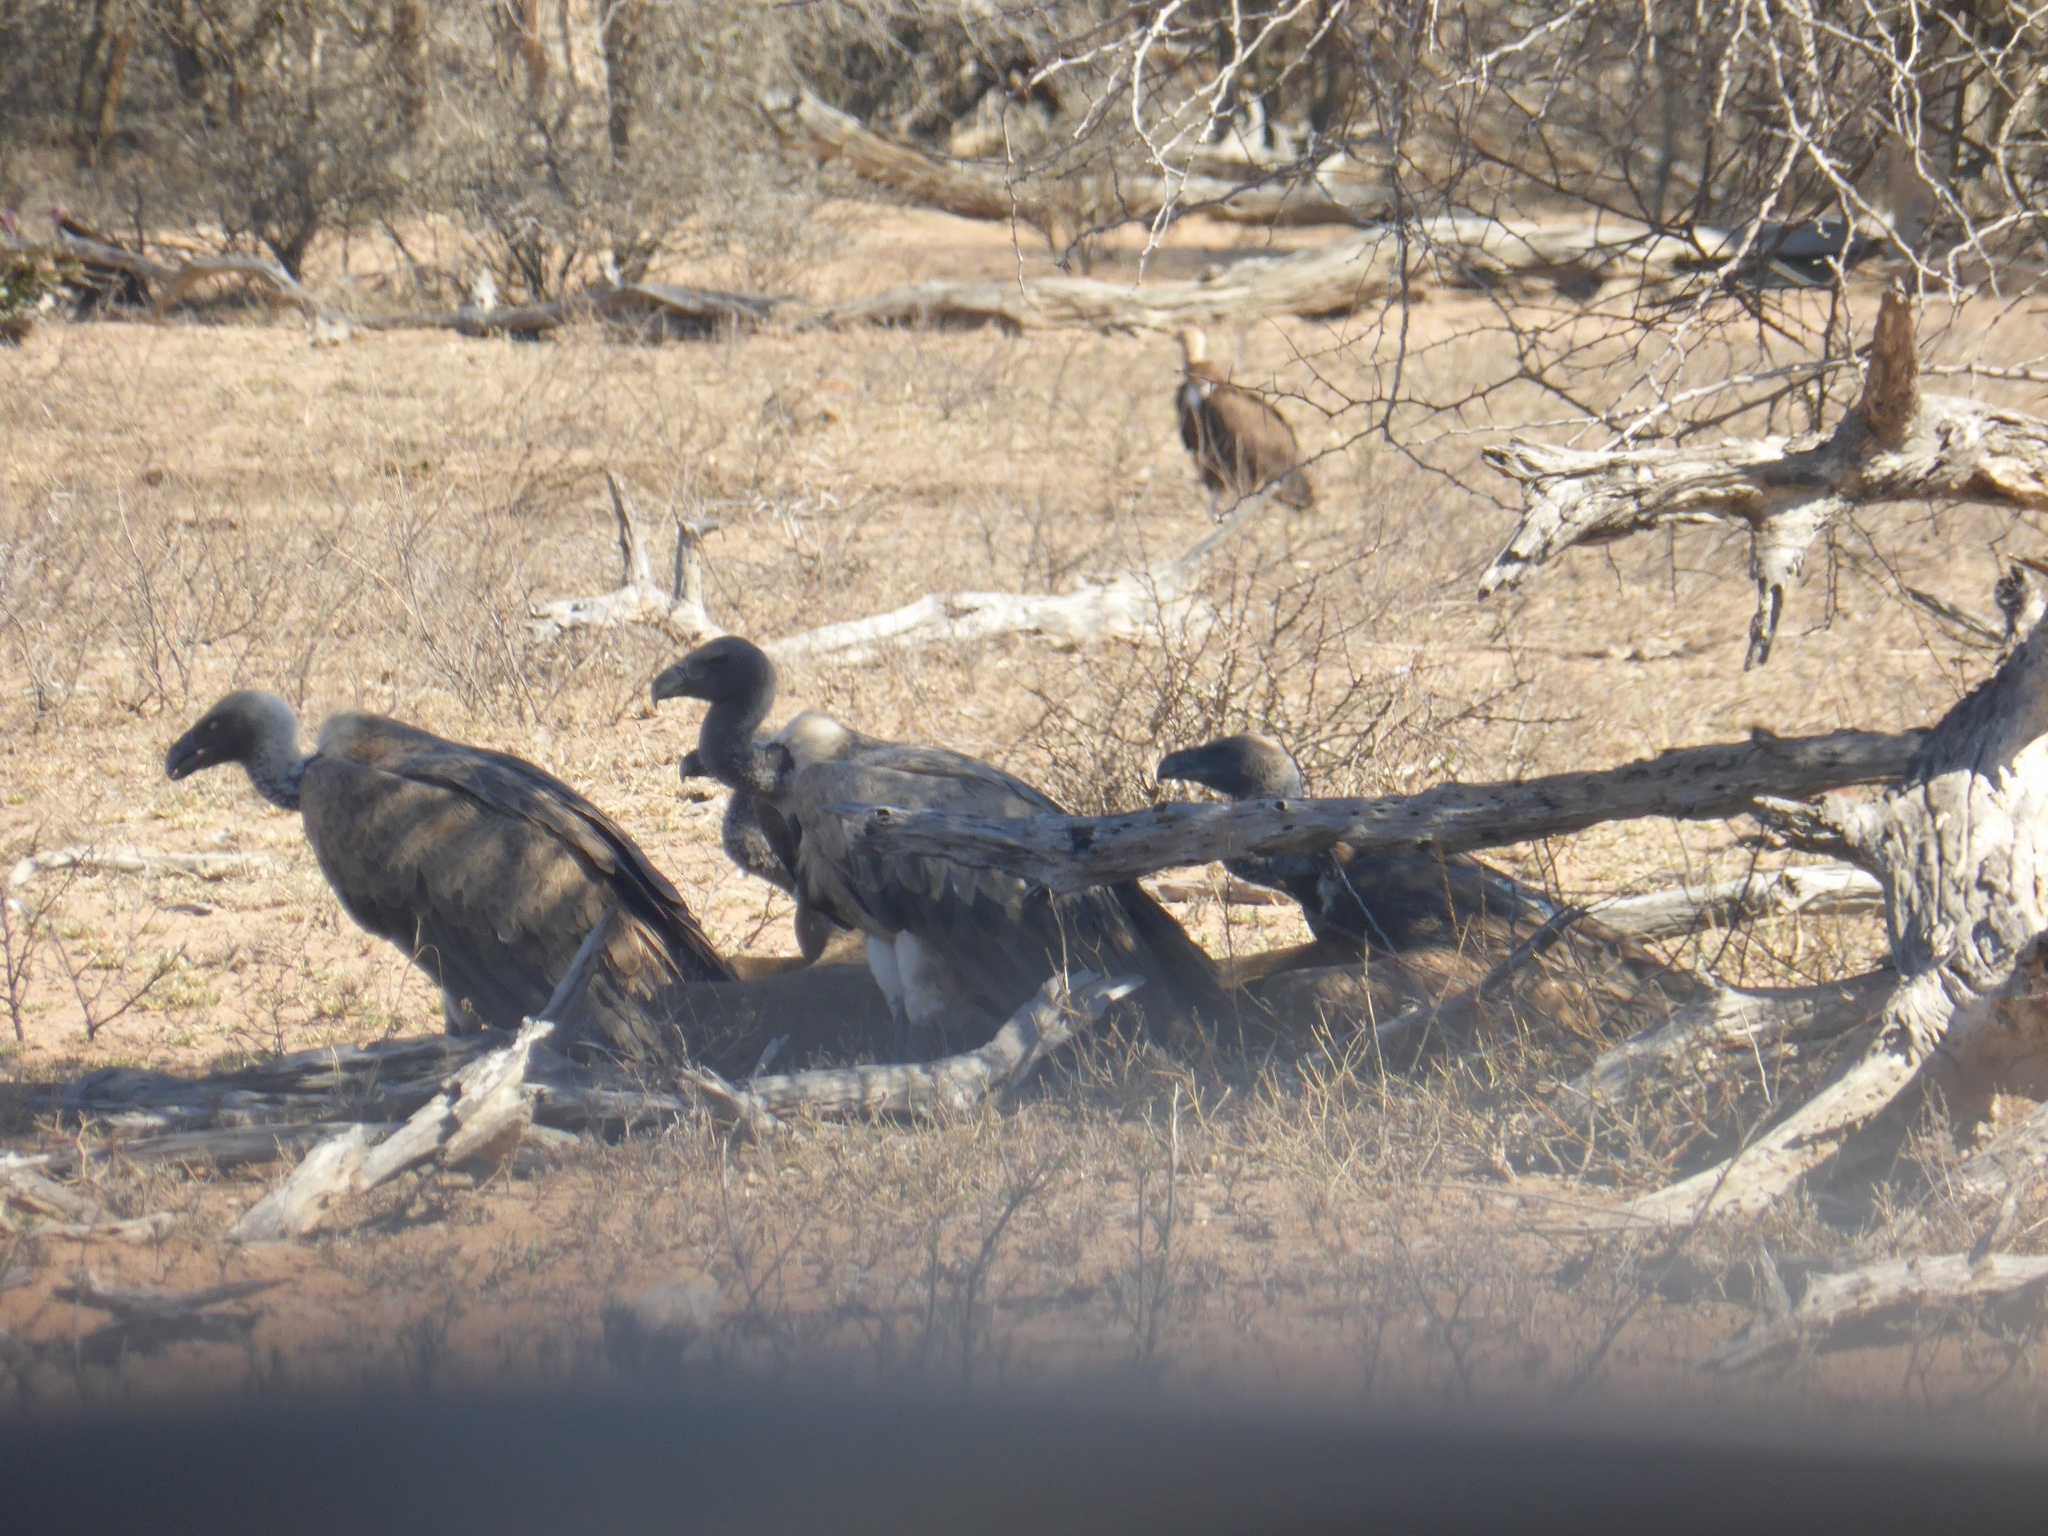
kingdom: Animalia
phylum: Chordata
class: Aves
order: Accipitriformes
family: Accipitridae
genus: Gyps
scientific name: Gyps africanus
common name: White-backed vulture
